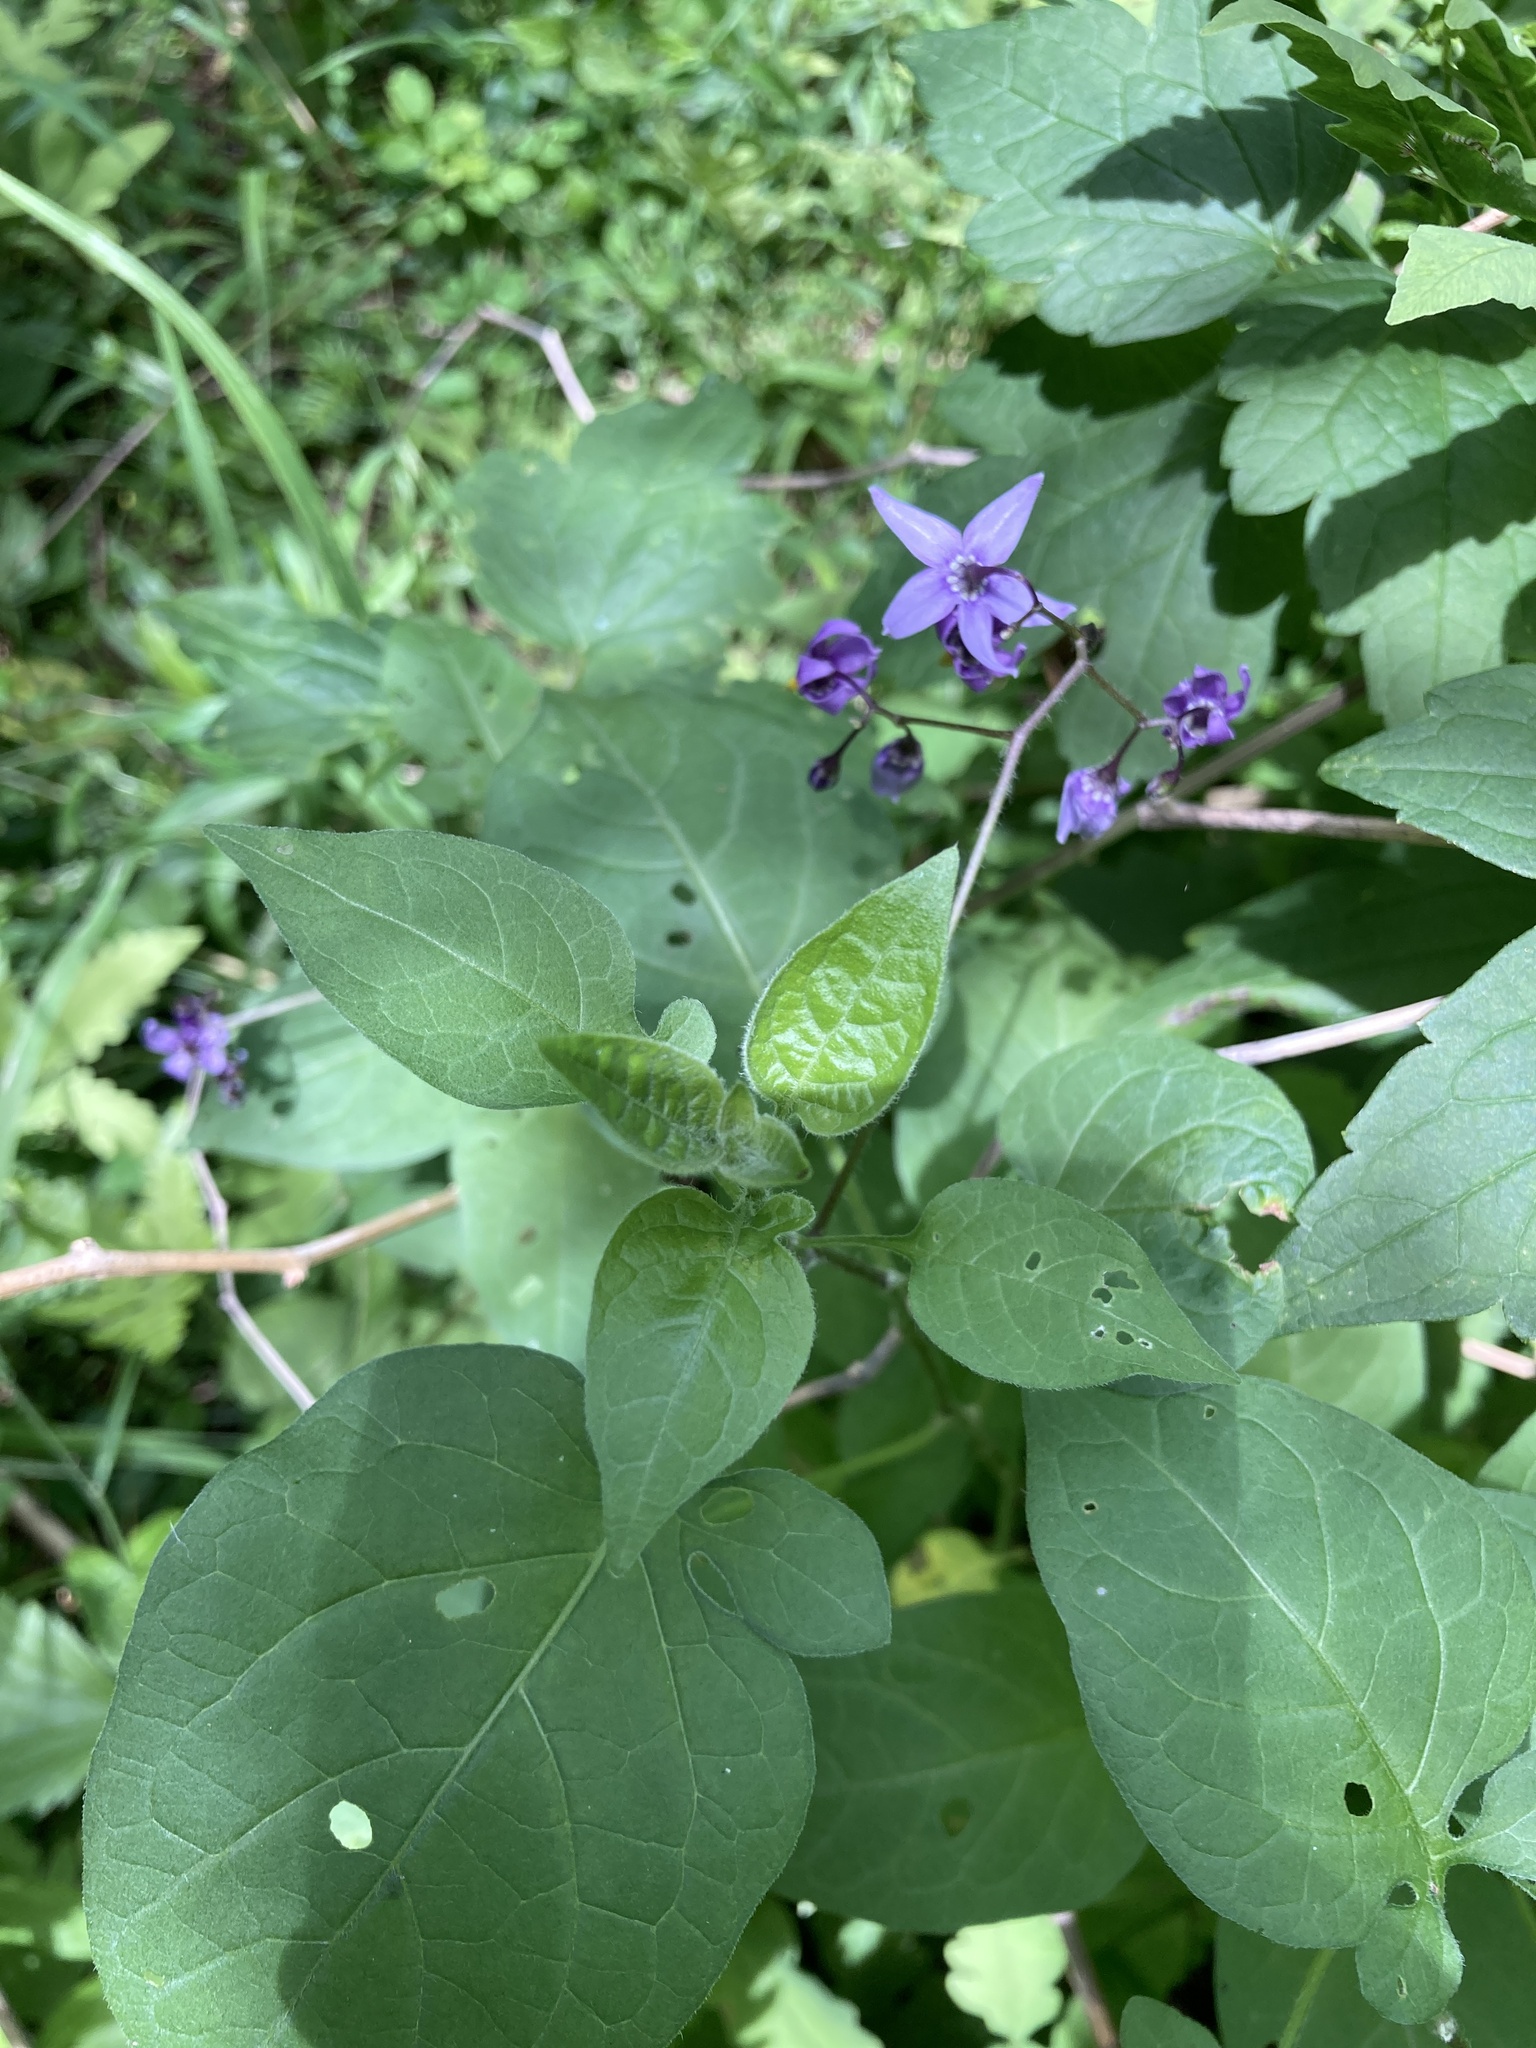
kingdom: Plantae
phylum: Tracheophyta
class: Magnoliopsida
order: Solanales
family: Solanaceae
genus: Solanum
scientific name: Solanum dulcamara
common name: Climbing nightshade
